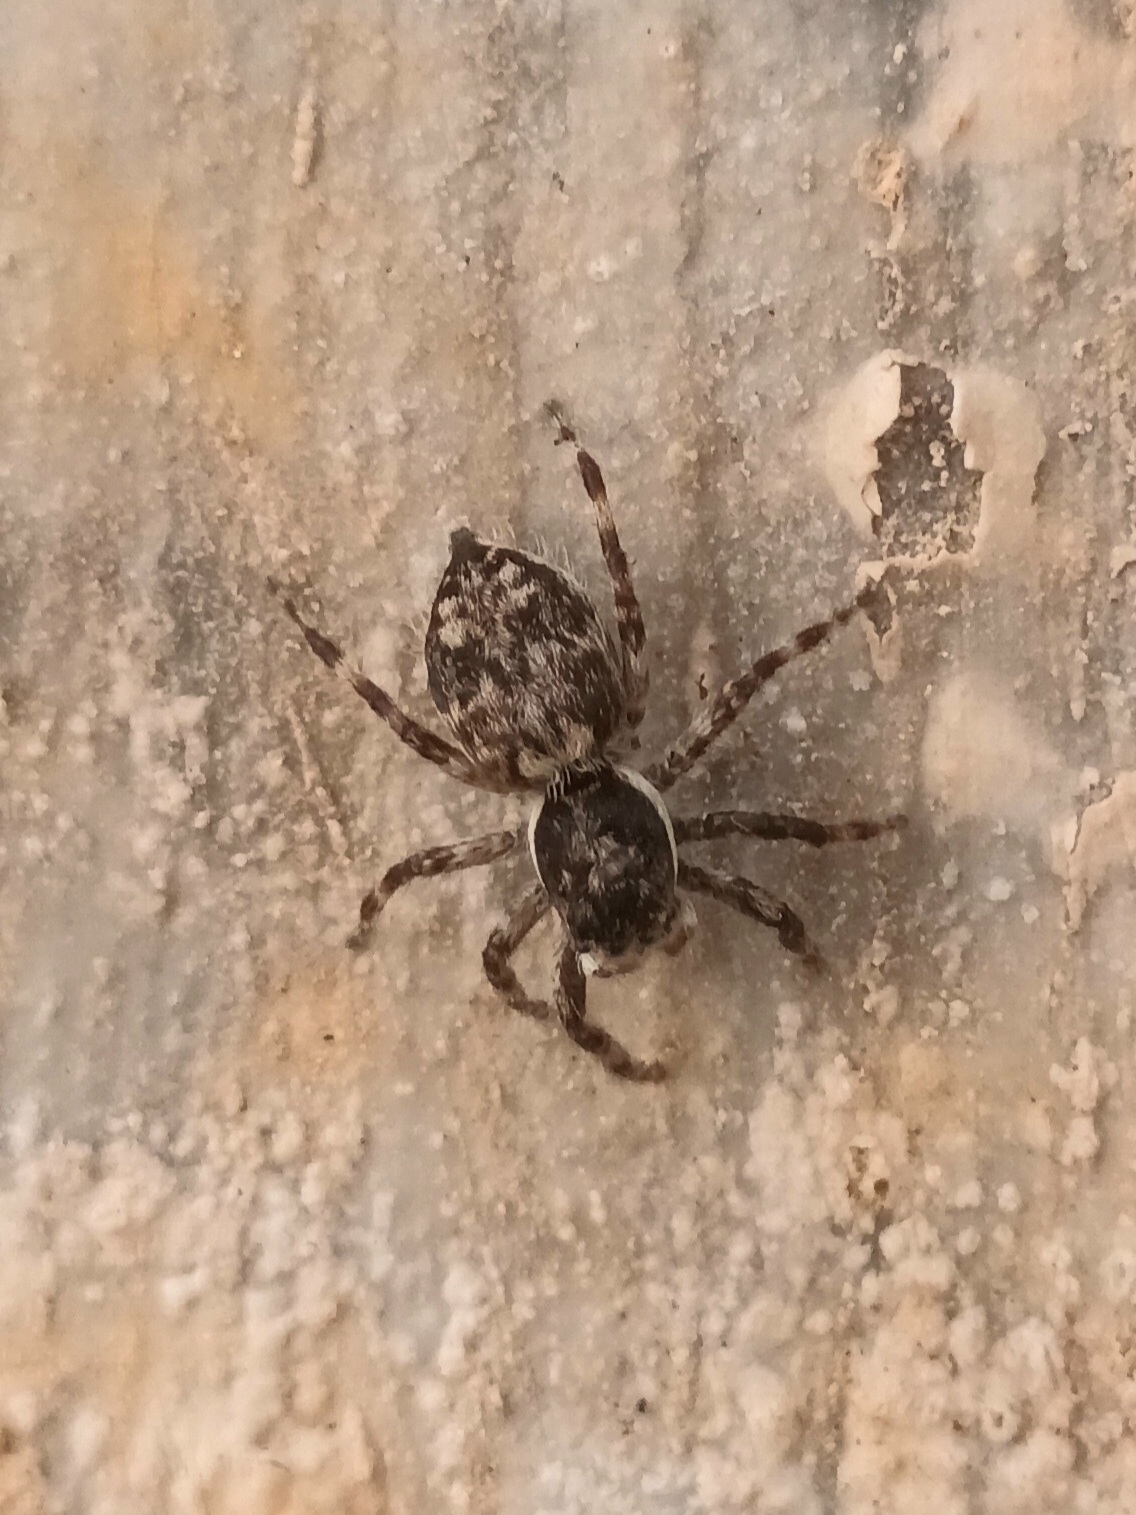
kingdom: Animalia
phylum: Arthropoda
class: Arachnida
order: Araneae
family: Salticidae
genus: Menemerus
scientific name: Menemerus nigli
